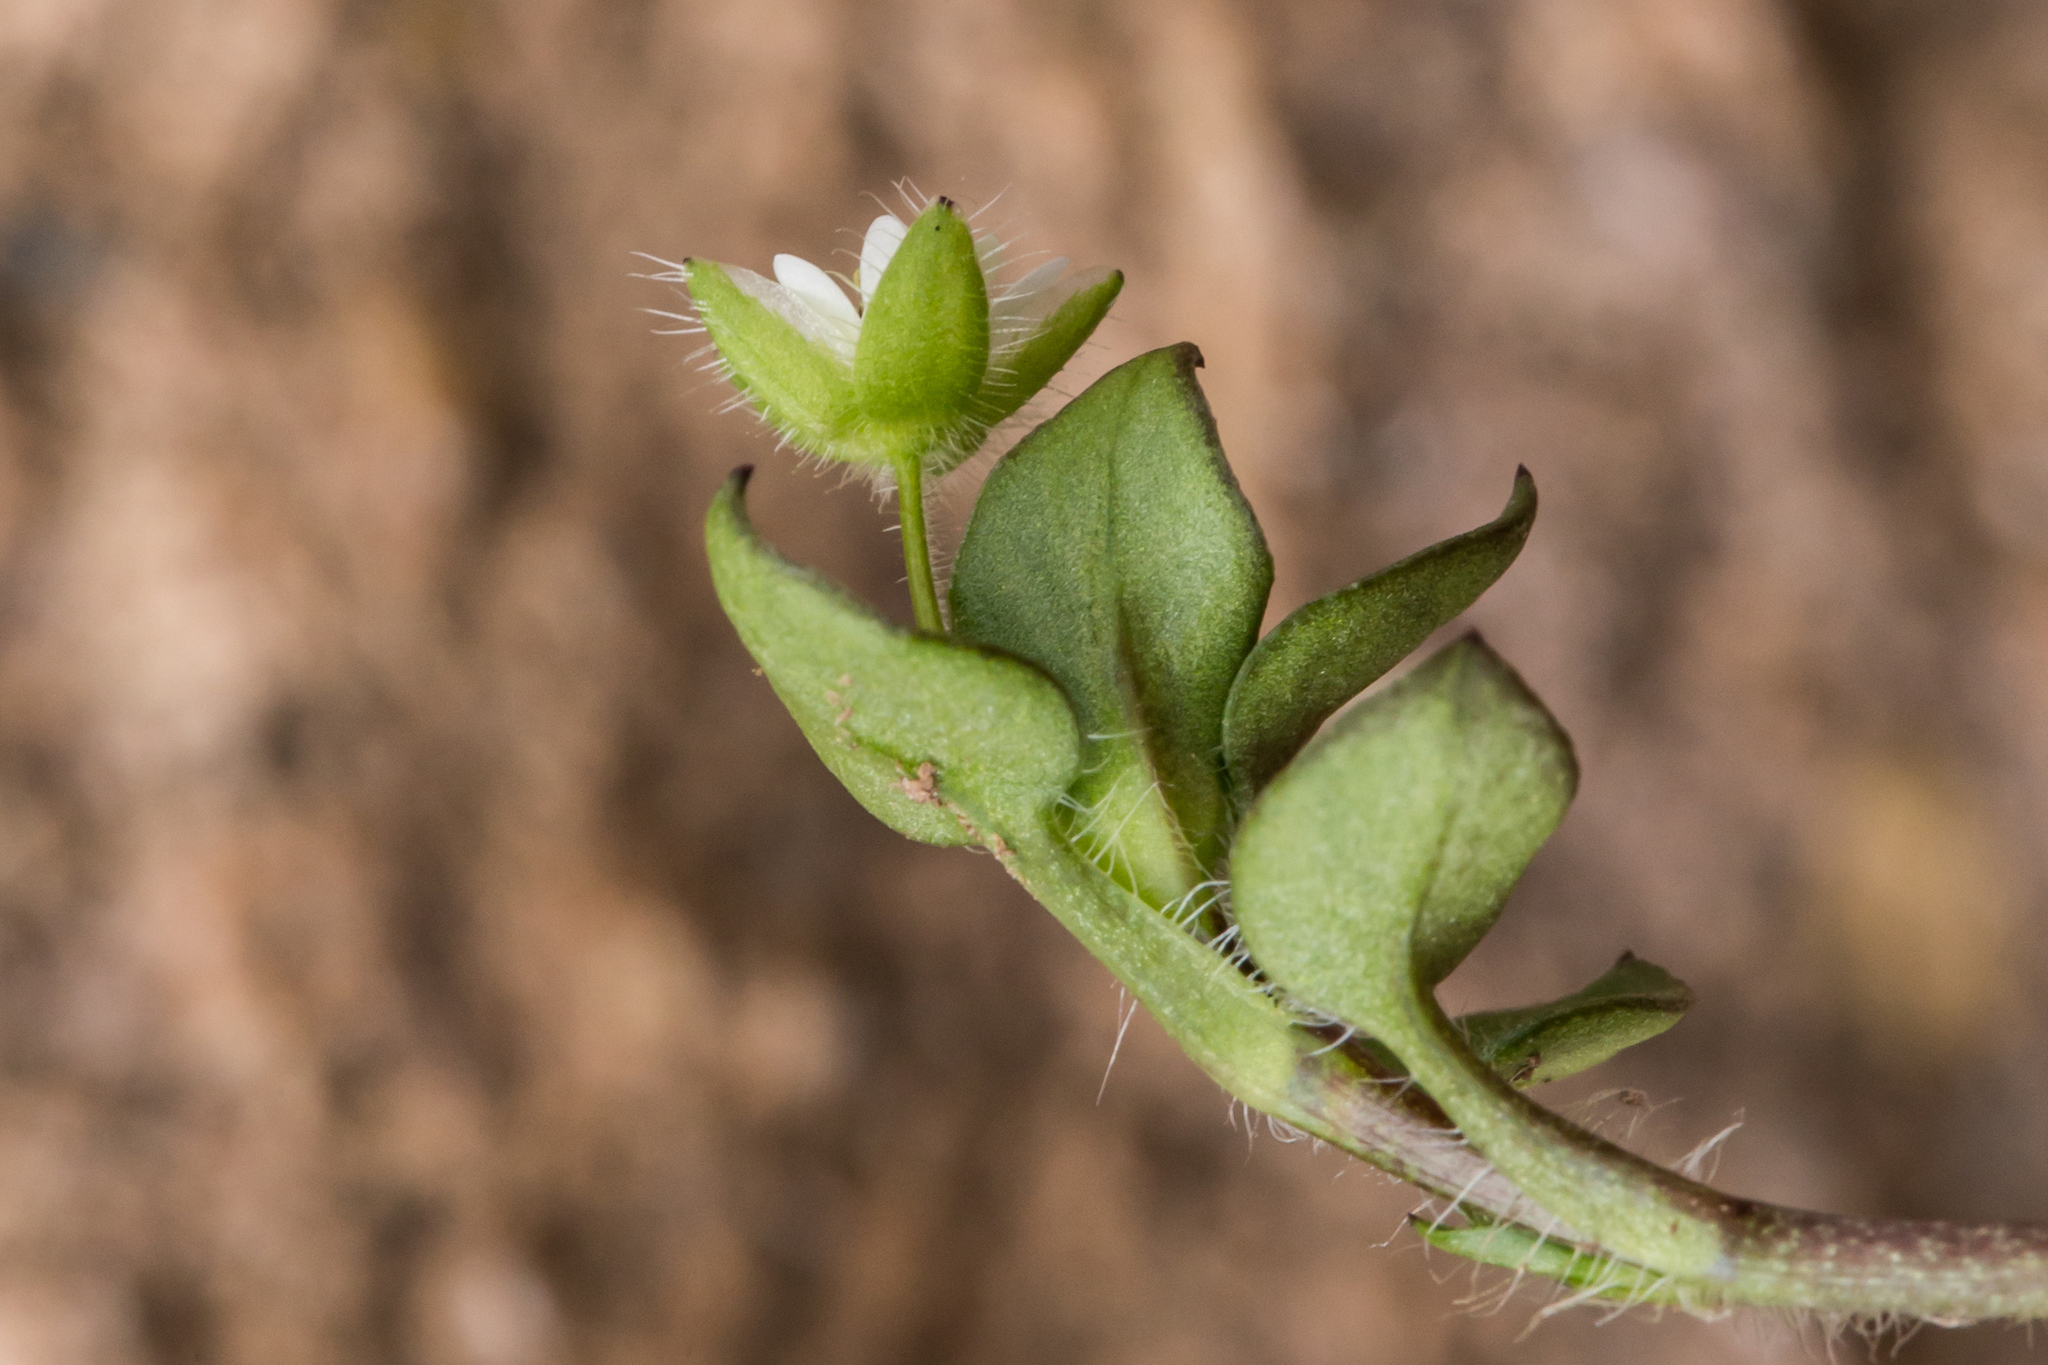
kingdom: Plantae
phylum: Tracheophyta
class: Magnoliopsida
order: Caryophyllales
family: Caryophyllaceae
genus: Stellaria
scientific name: Stellaria media
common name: Common chickweed
